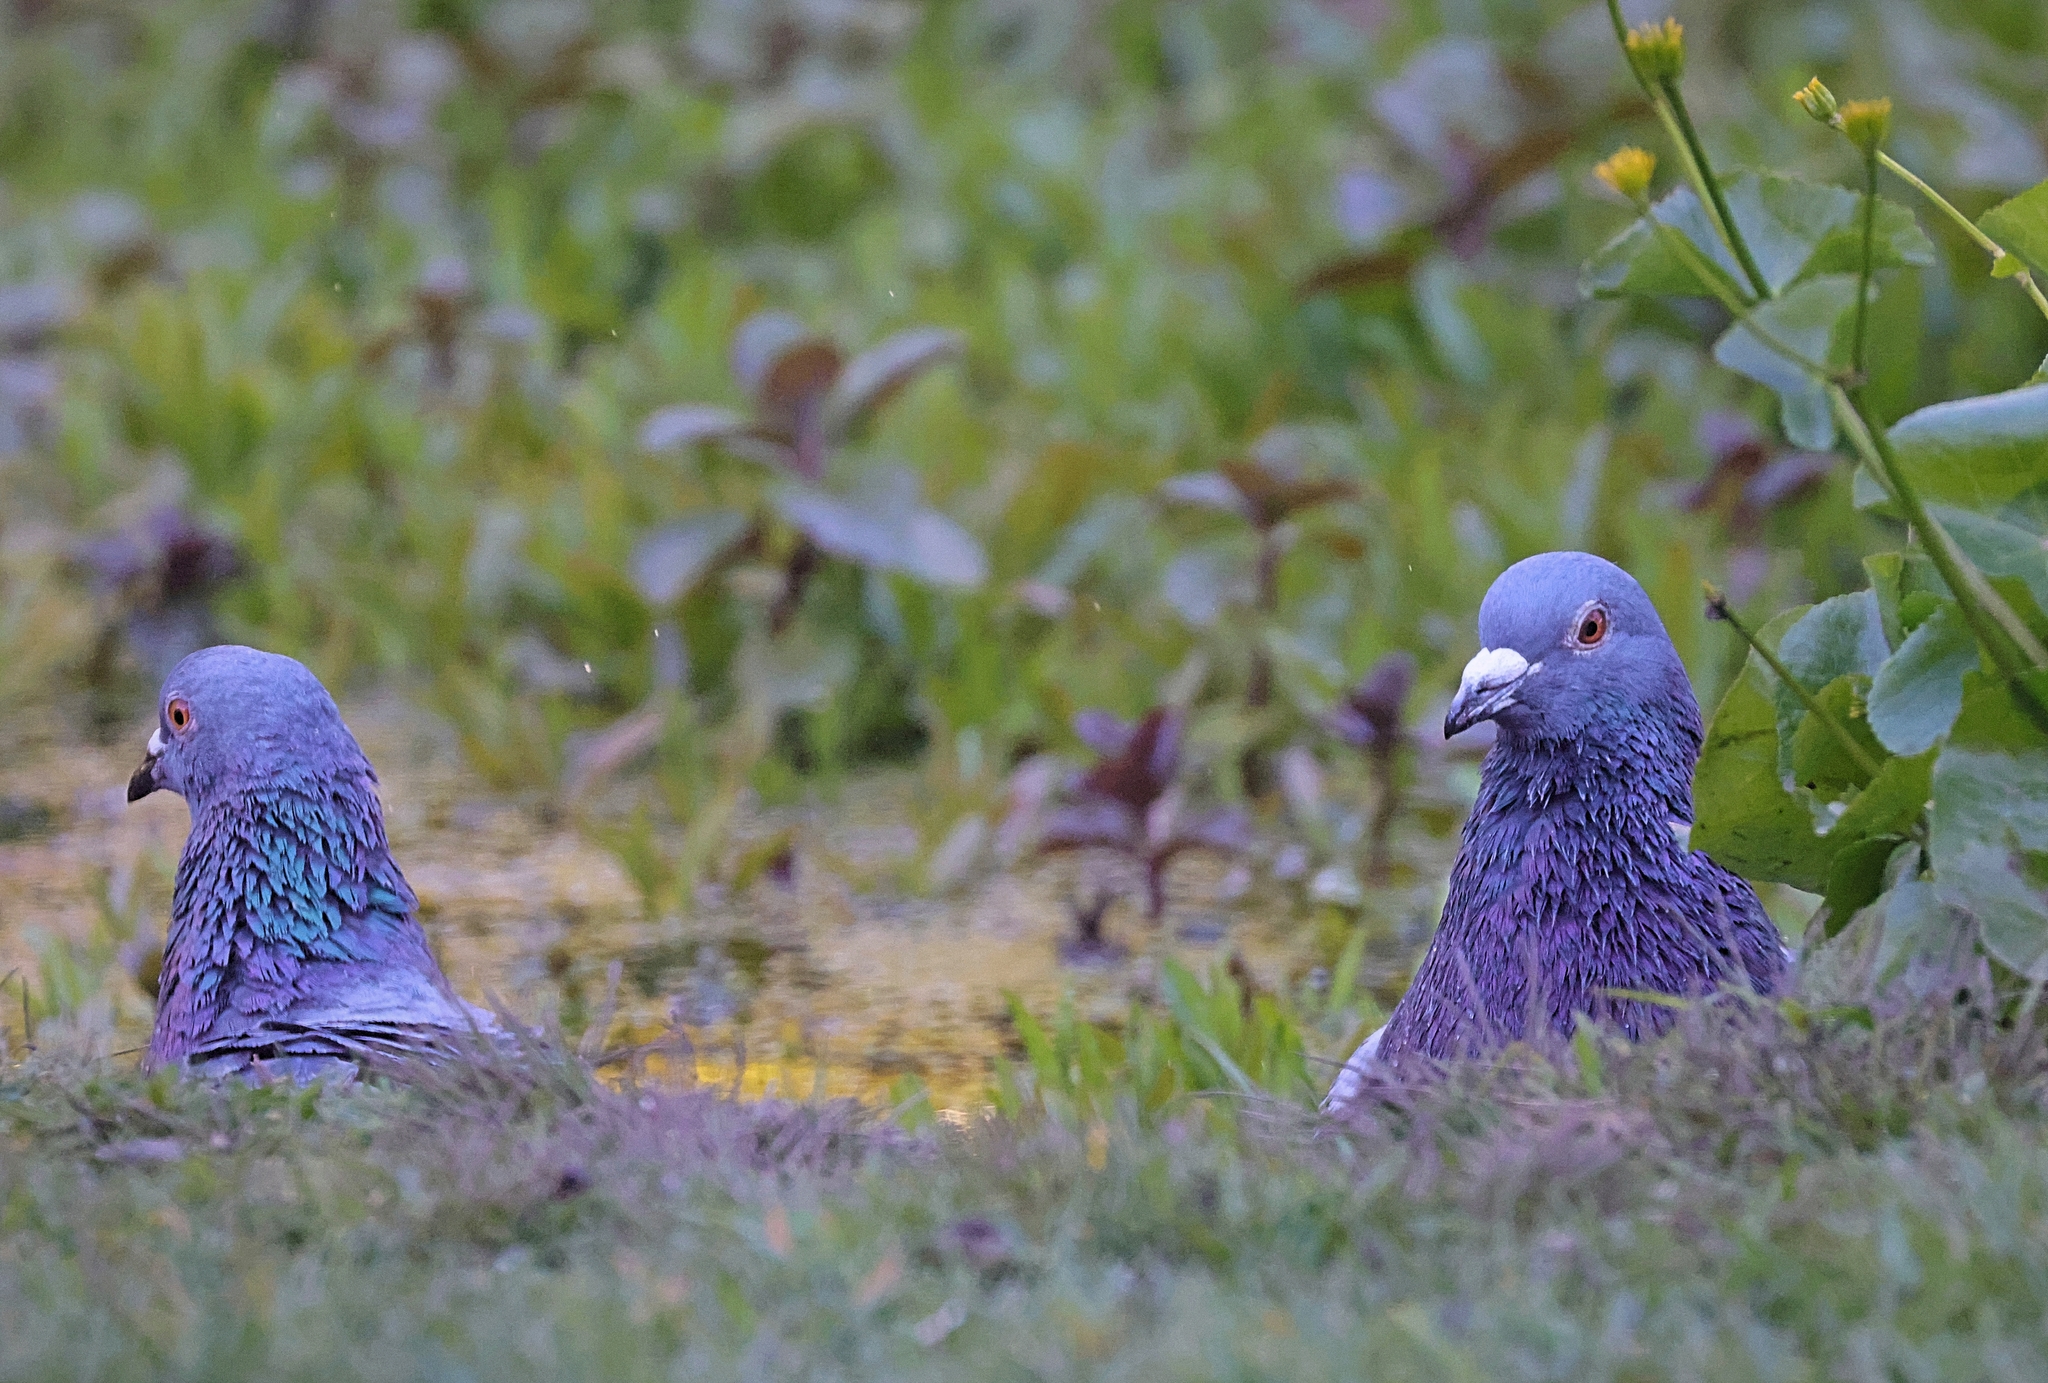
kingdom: Animalia
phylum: Chordata
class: Aves
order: Columbiformes
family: Columbidae
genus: Columba
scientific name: Columba livia
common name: Rock pigeon
